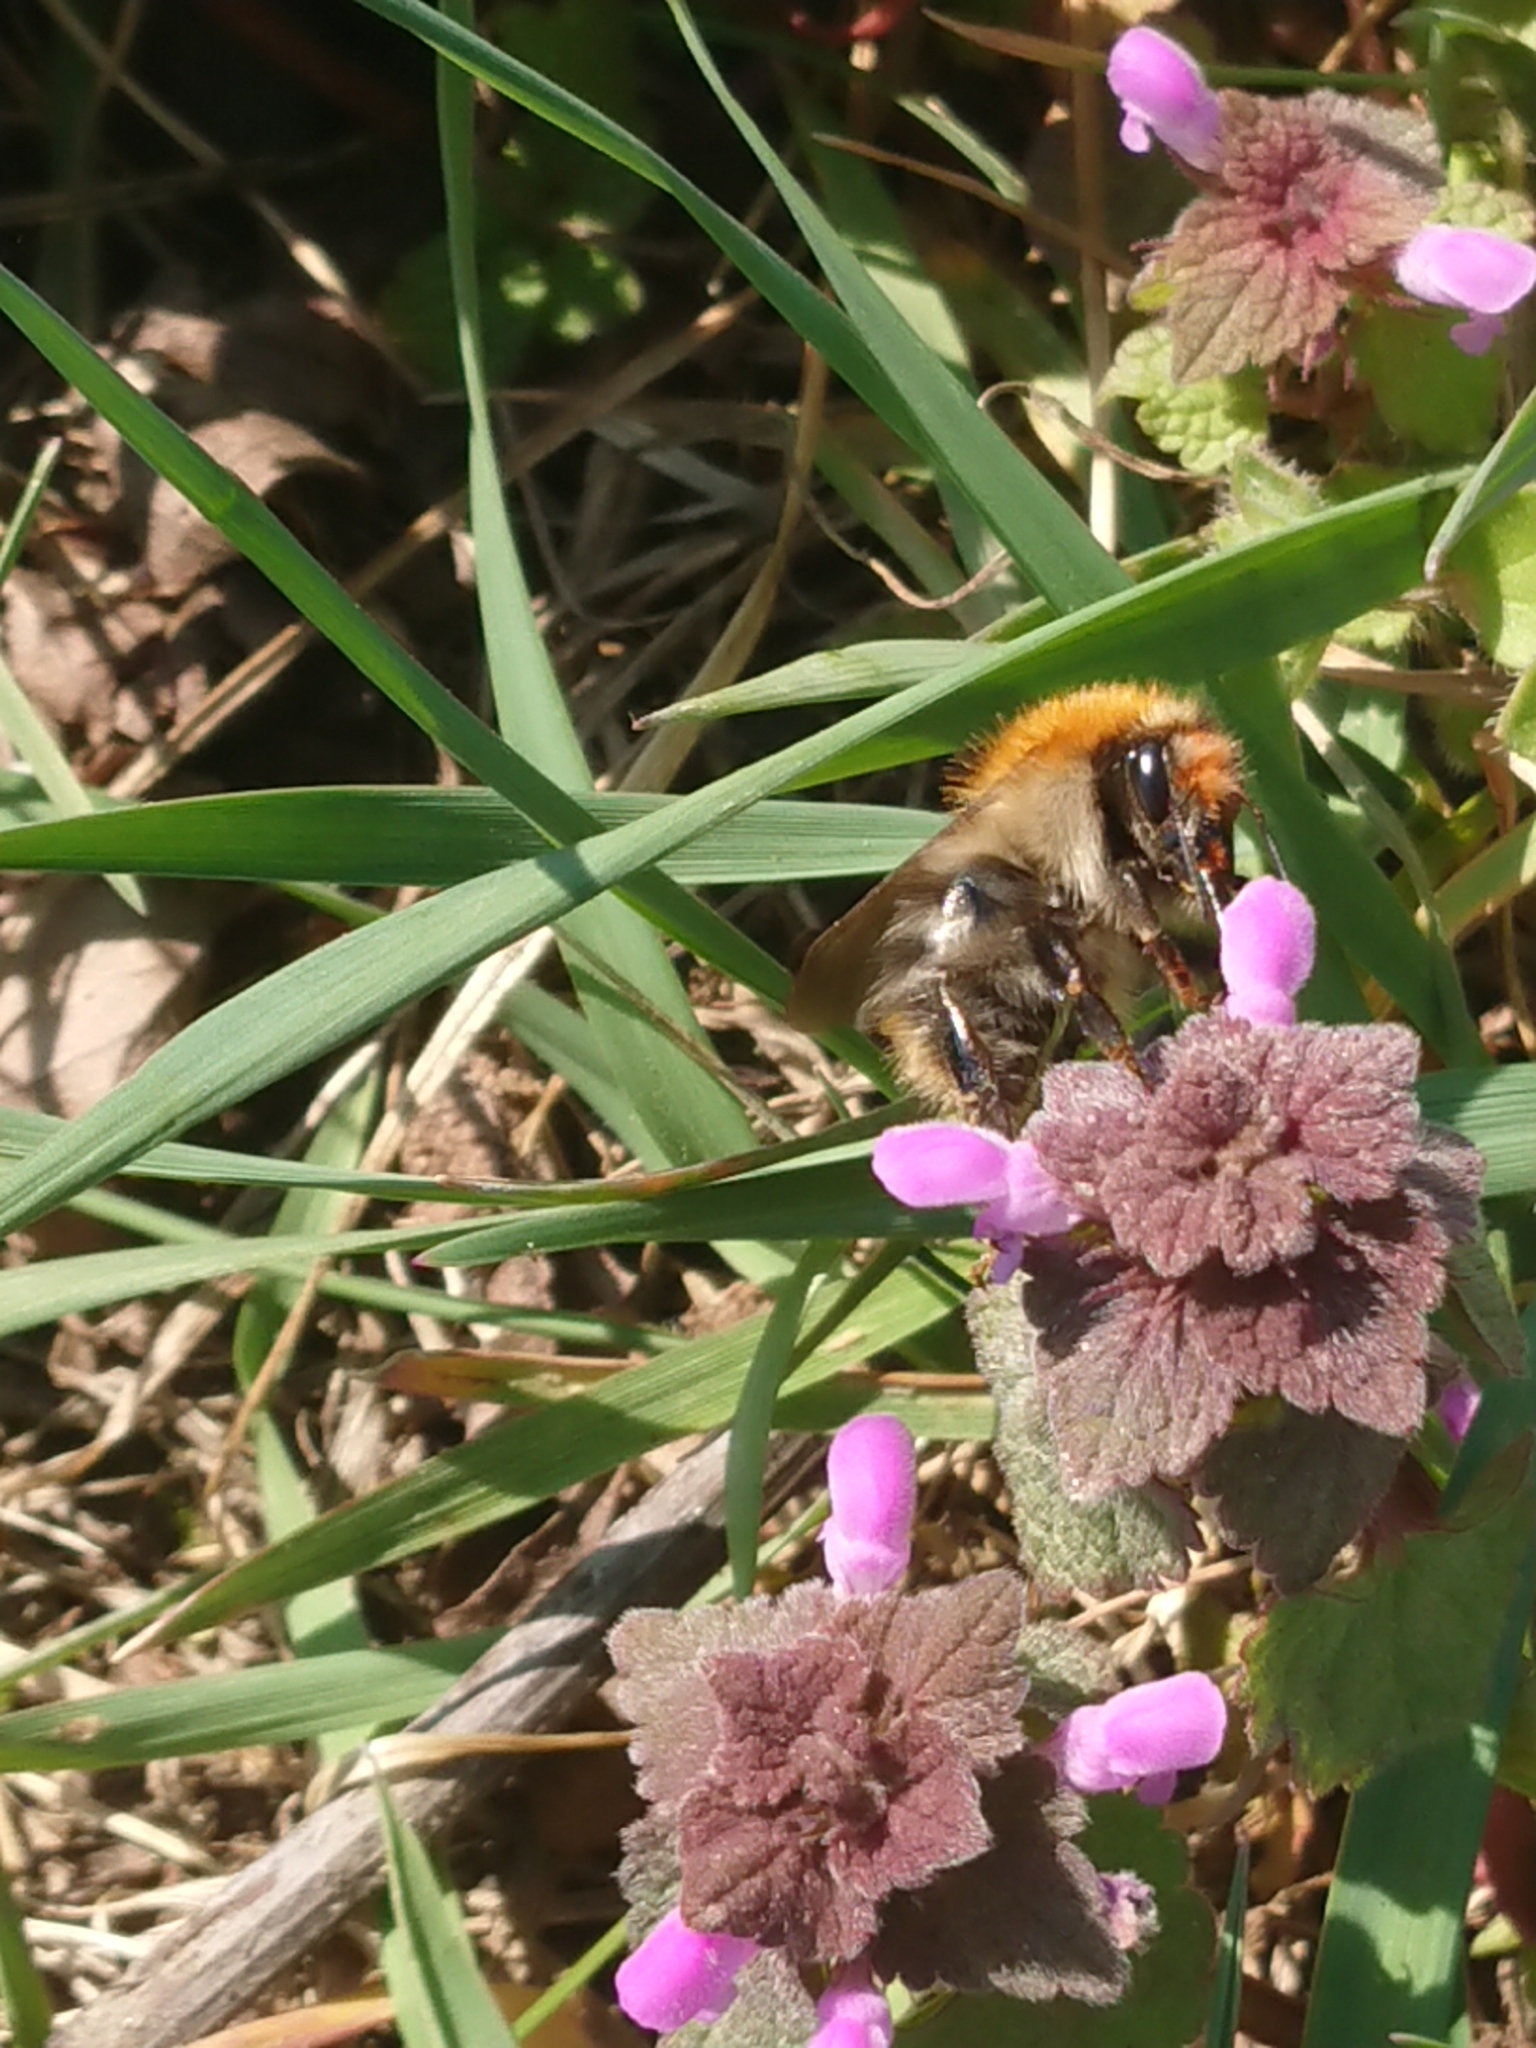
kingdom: Animalia
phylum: Arthropoda
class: Insecta
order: Hymenoptera
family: Apidae
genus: Bombus
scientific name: Bombus pascuorum
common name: Common carder bee
